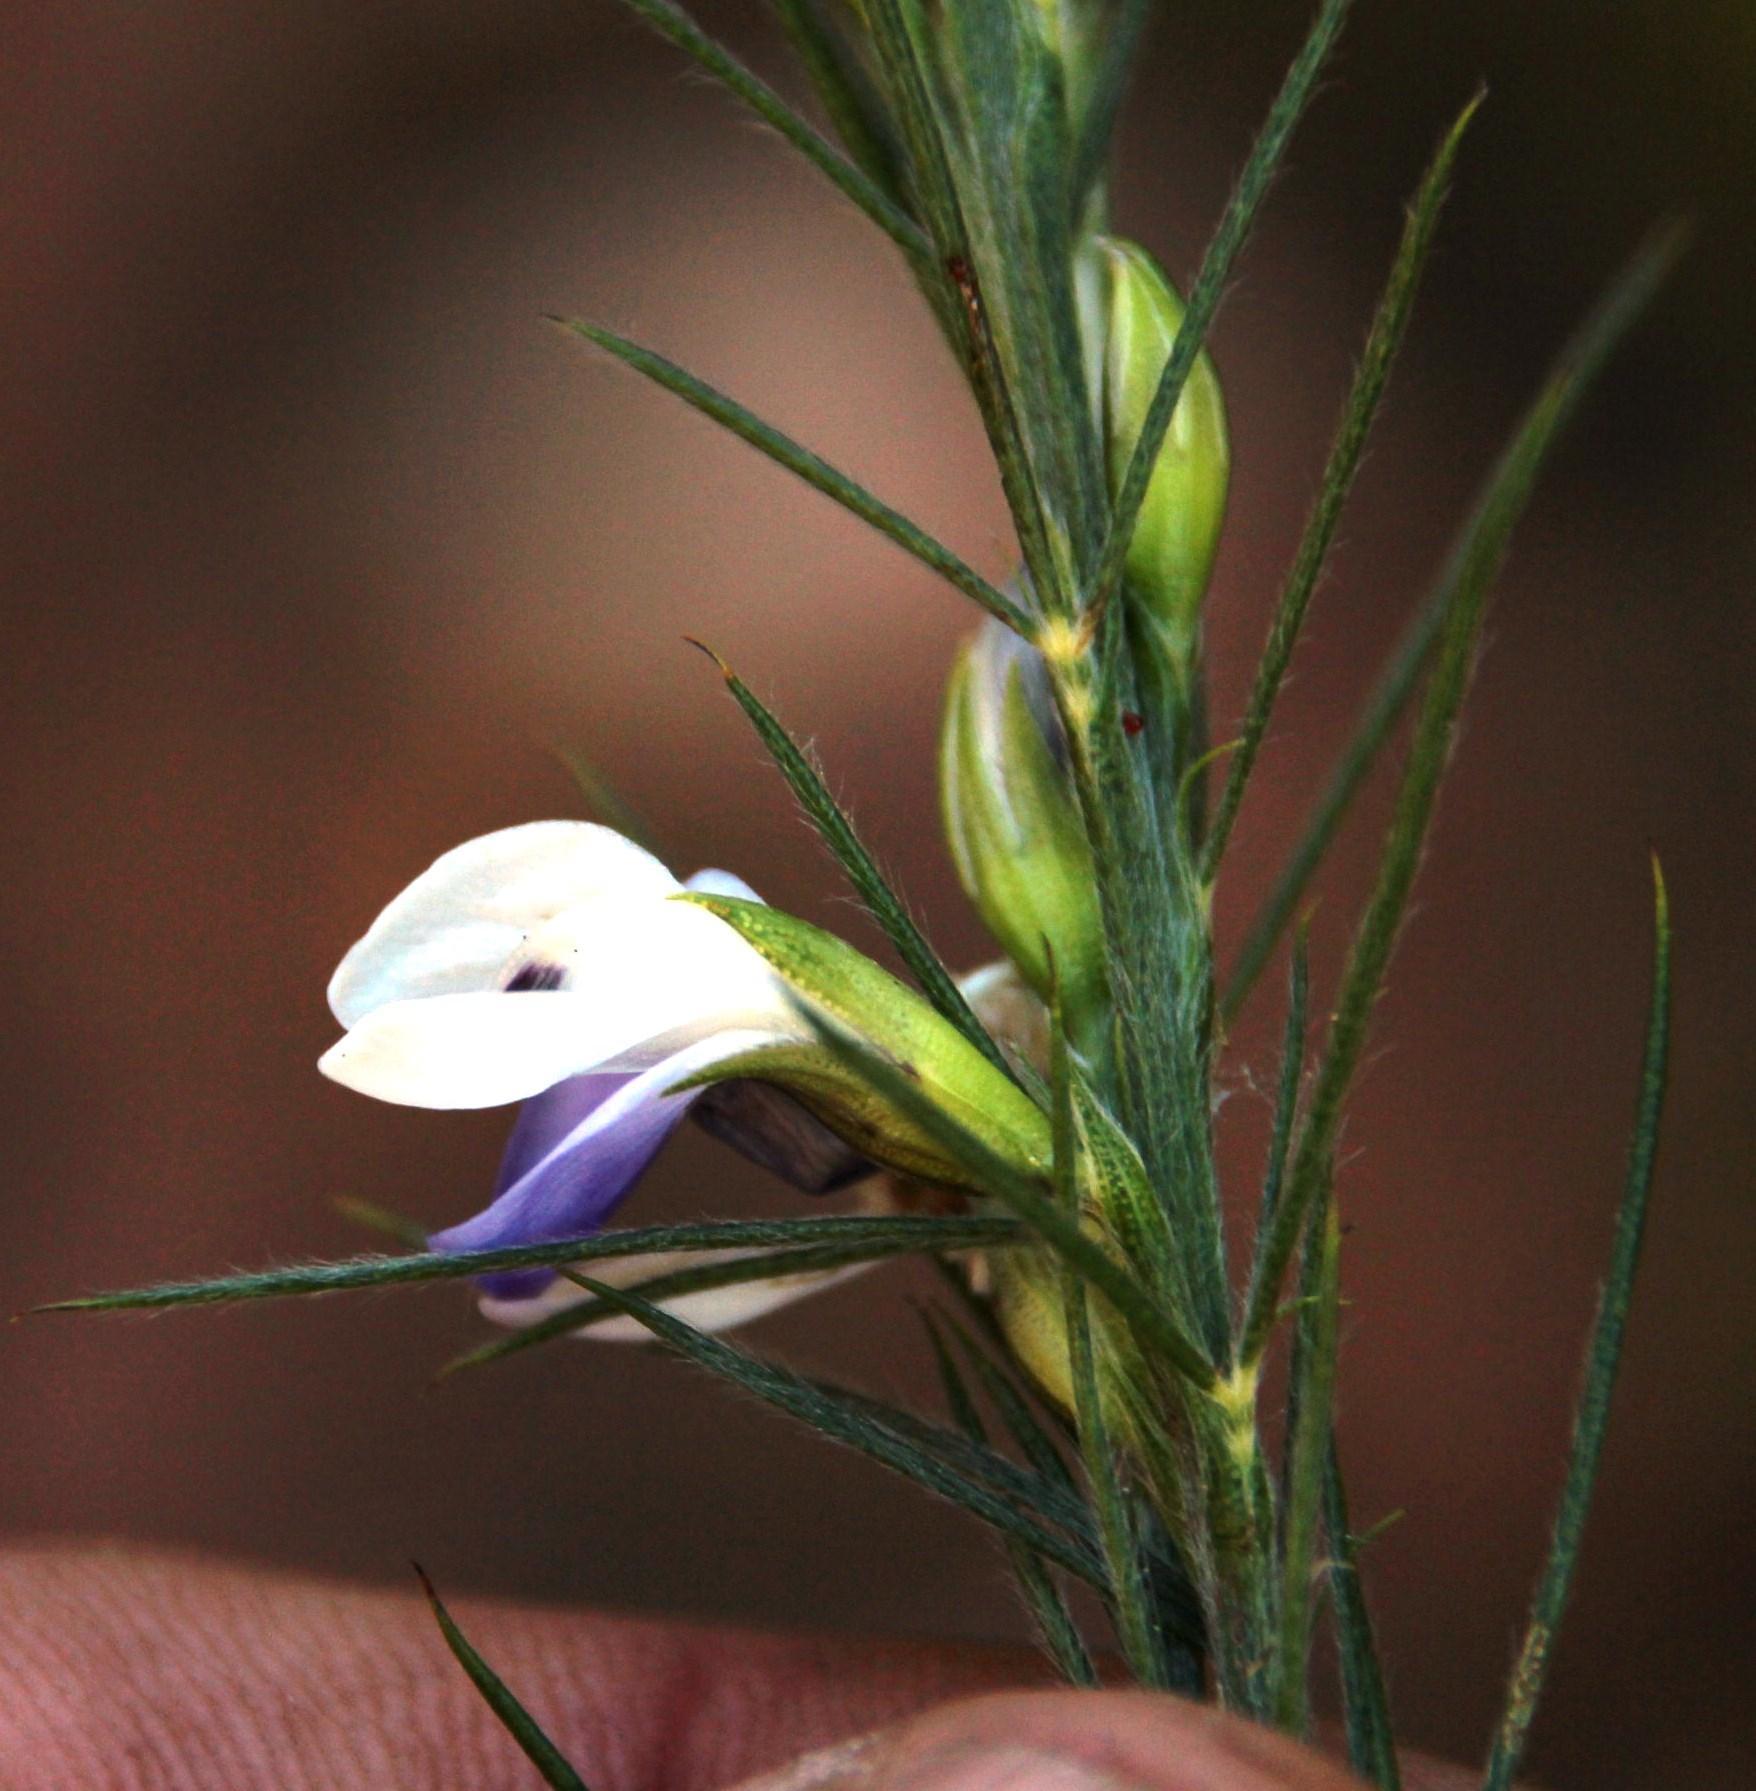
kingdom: Plantae
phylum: Tracheophyta
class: Magnoliopsida
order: Fabales
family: Fabaceae
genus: Psoralea
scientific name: Psoralea gigantea
